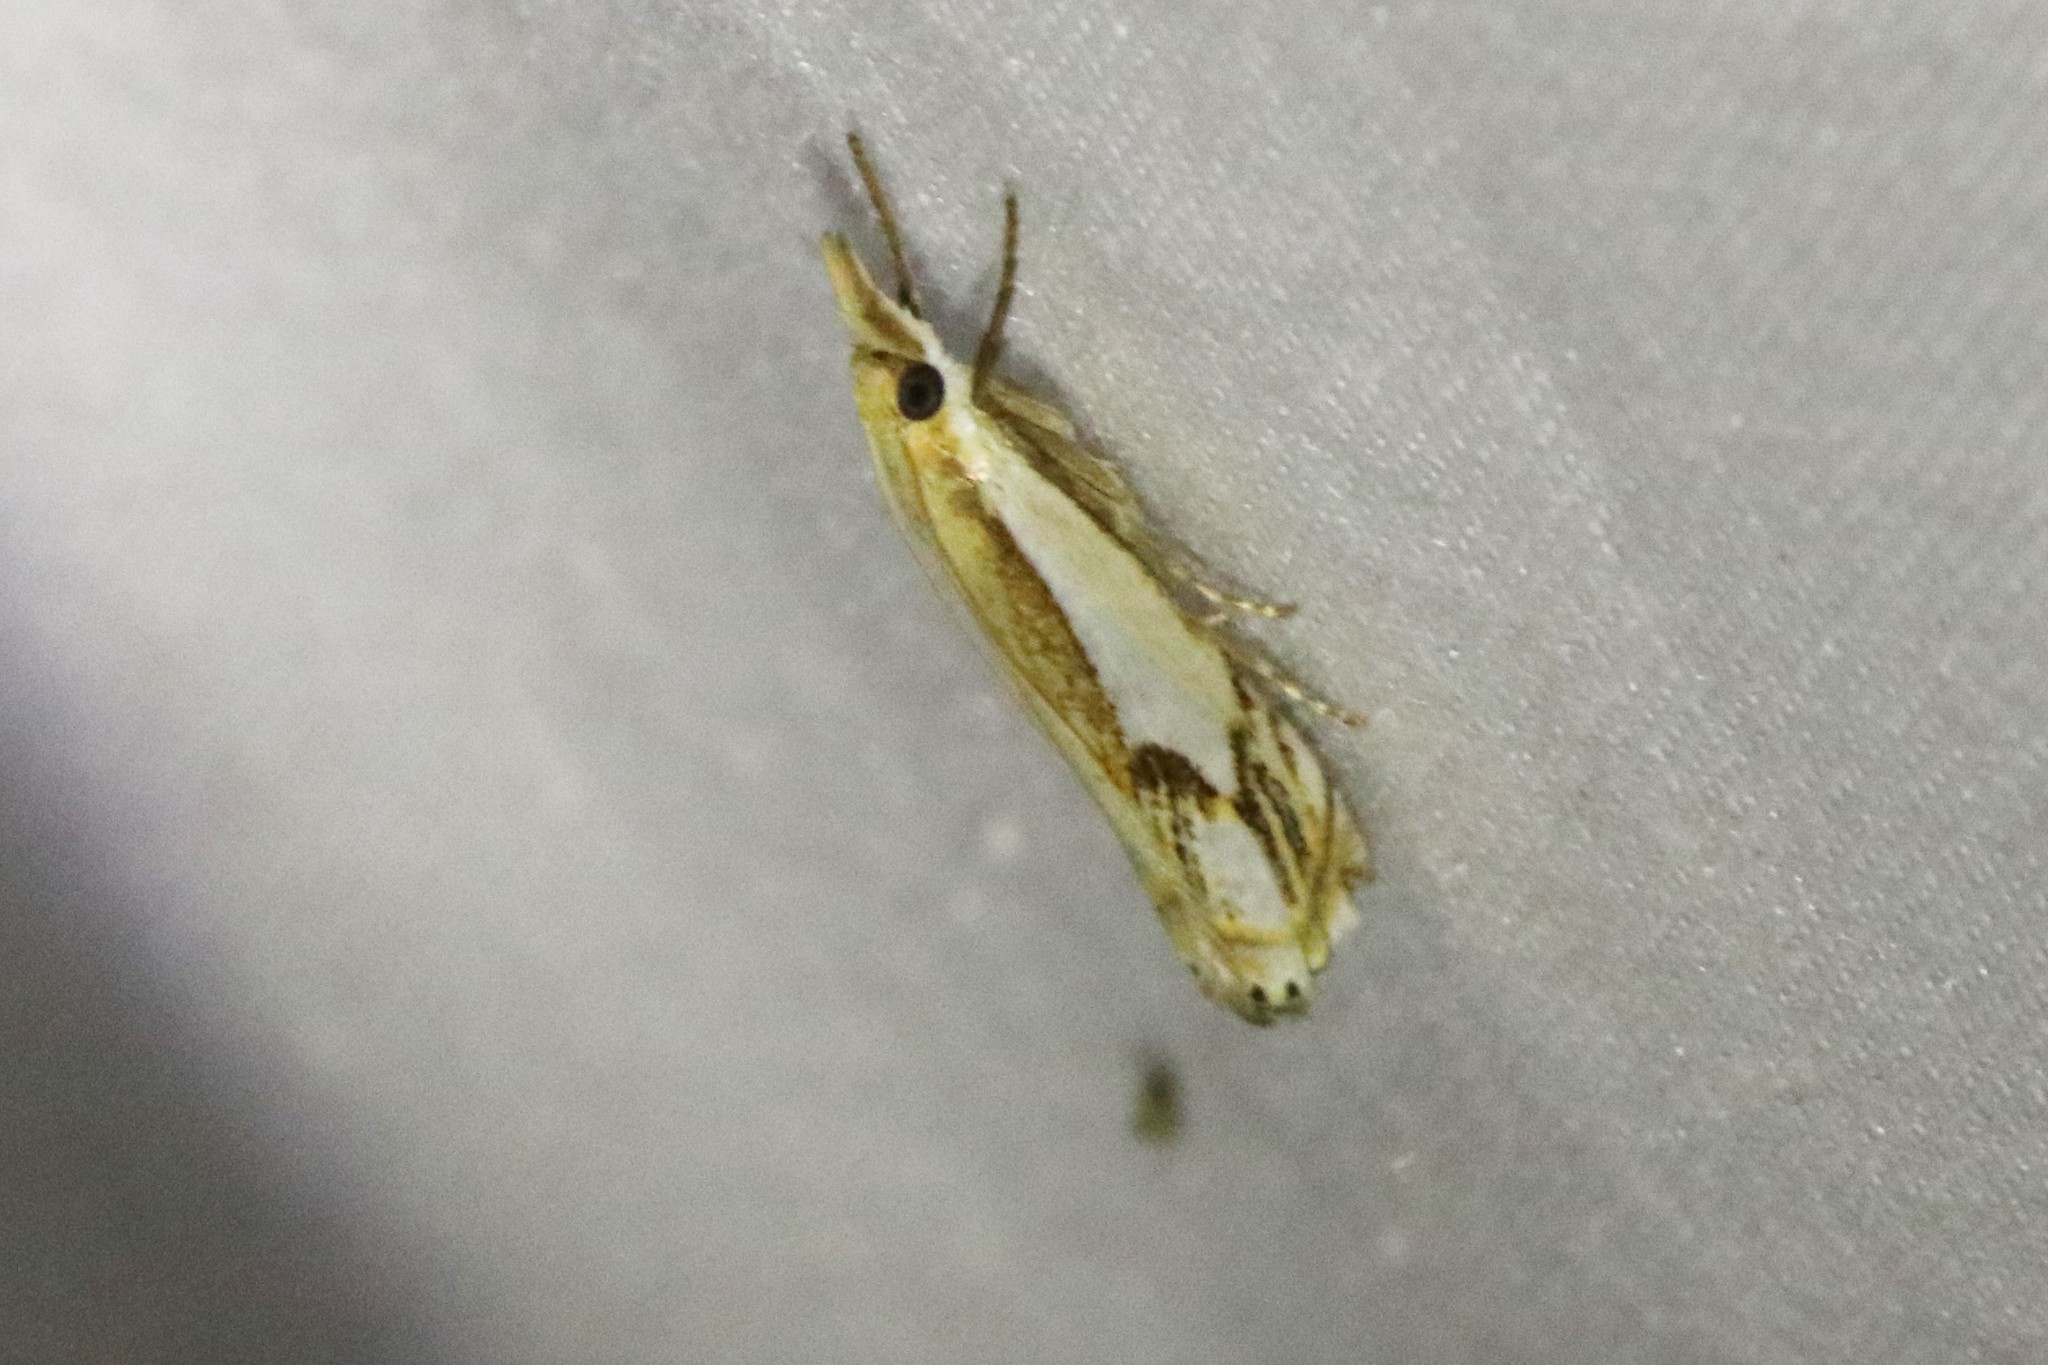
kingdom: Animalia
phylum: Arthropoda
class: Insecta
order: Lepidoptera
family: Crambidae
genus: Crambus
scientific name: Crambus agitatellus
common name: Double-banded grass-veneer
